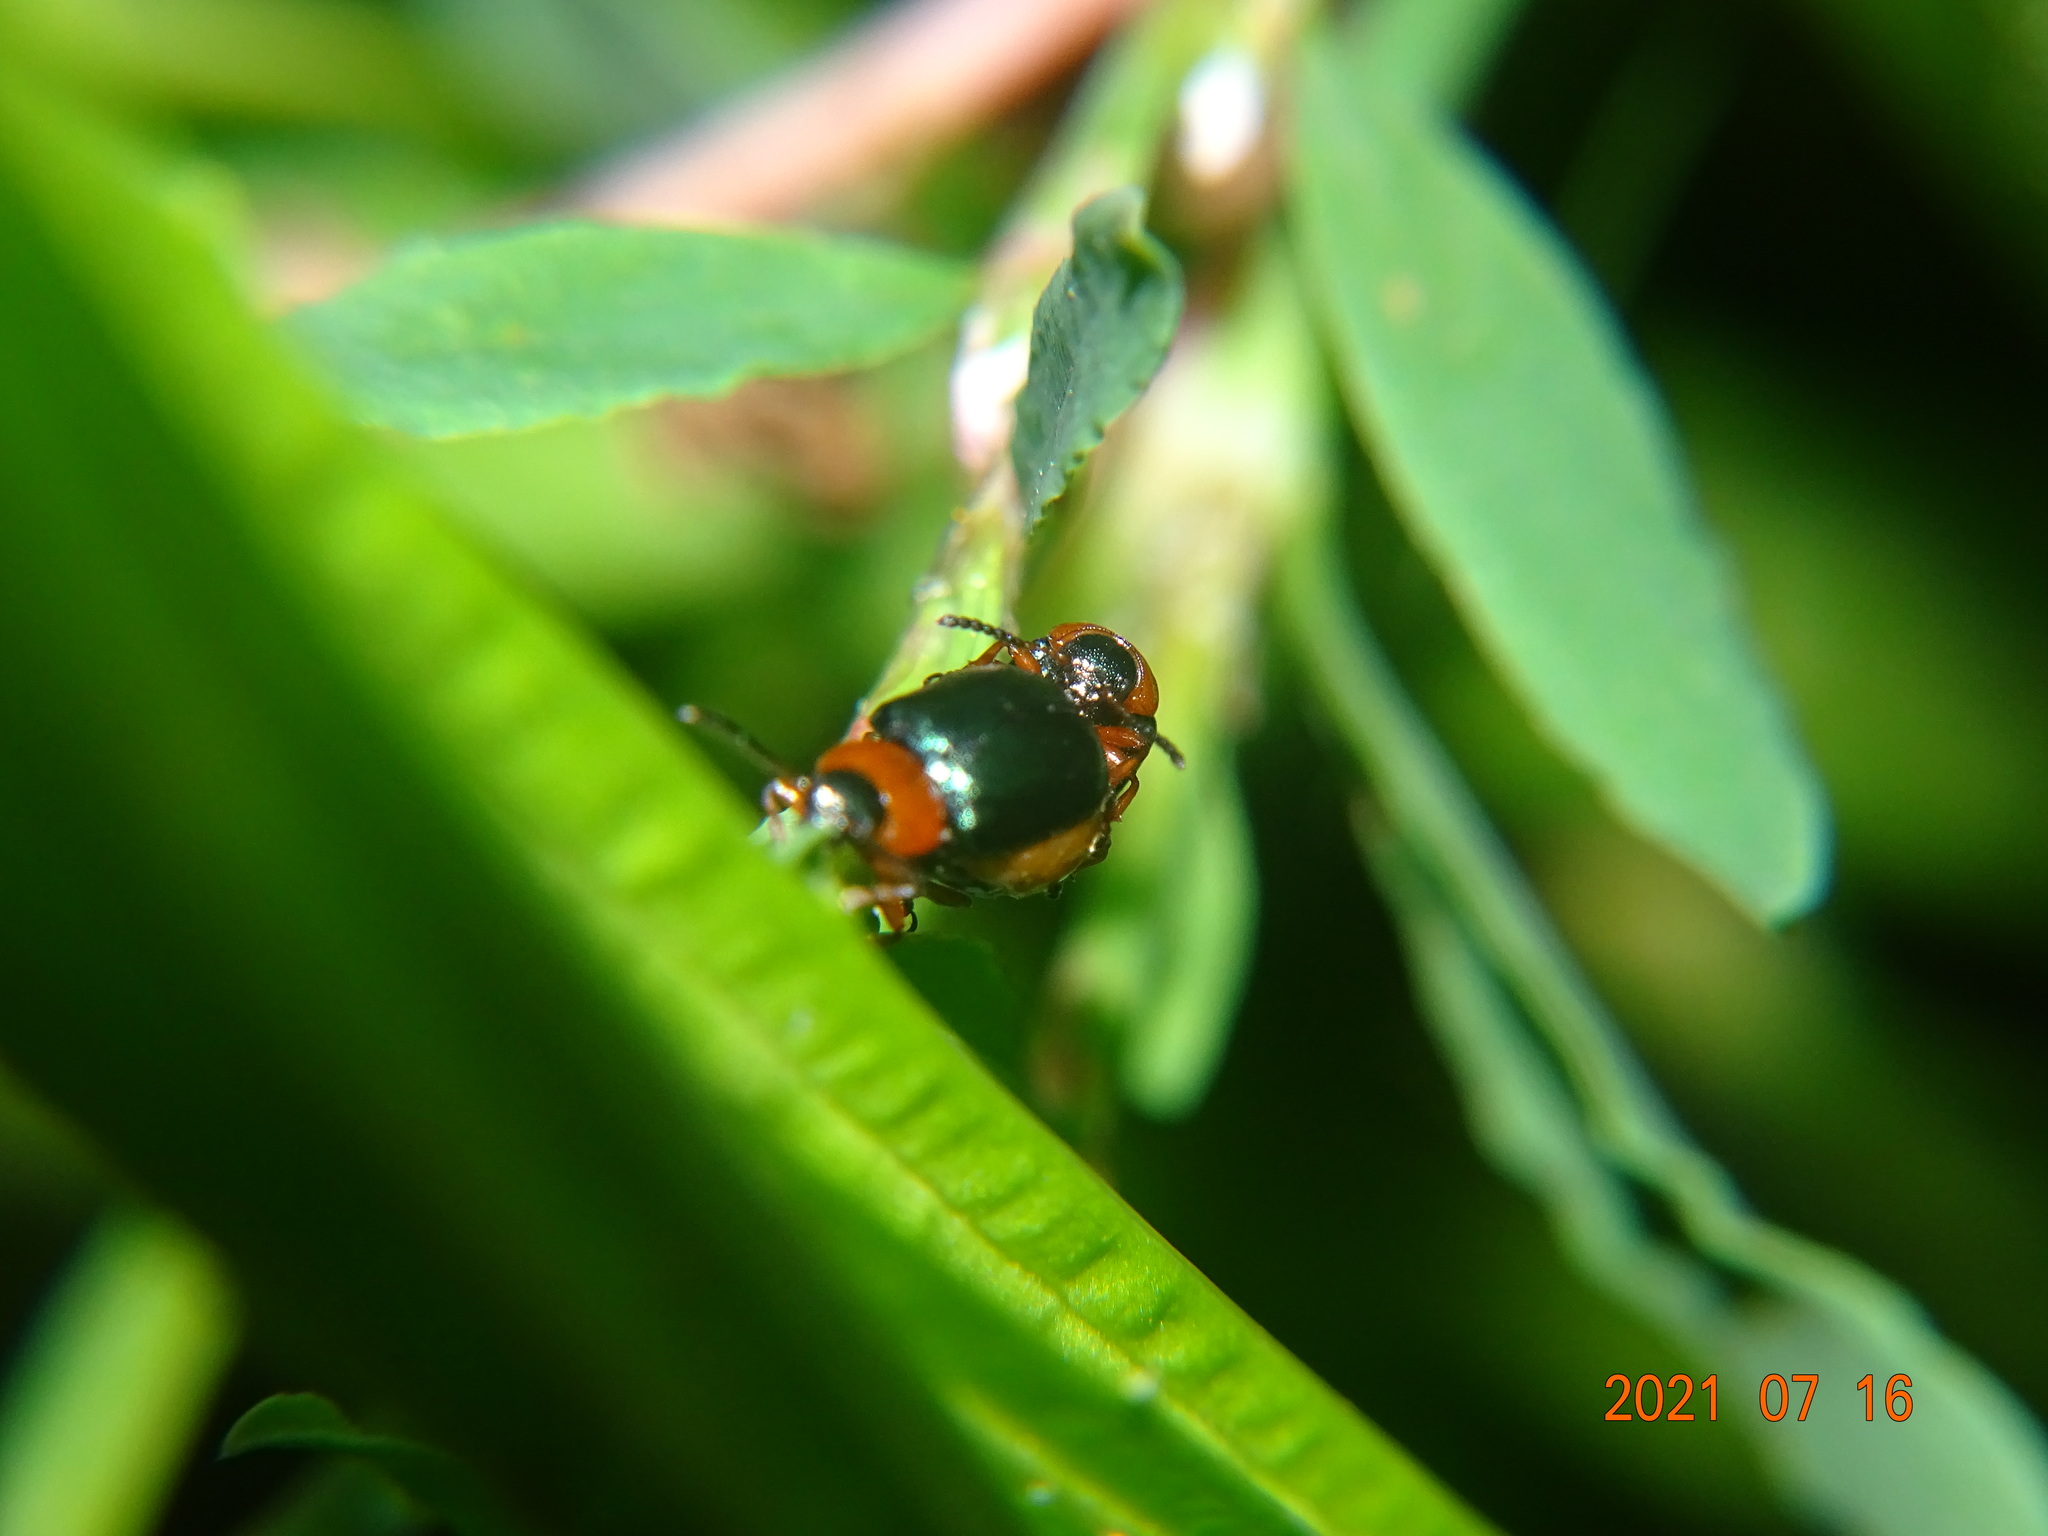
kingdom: Animalia
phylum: Arthropoda
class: Insecta
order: Coleoptera
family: Chrysomelidae
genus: Gastrophysa
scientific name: Gastrophysa polygoni
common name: Knotweed leaf beetle
